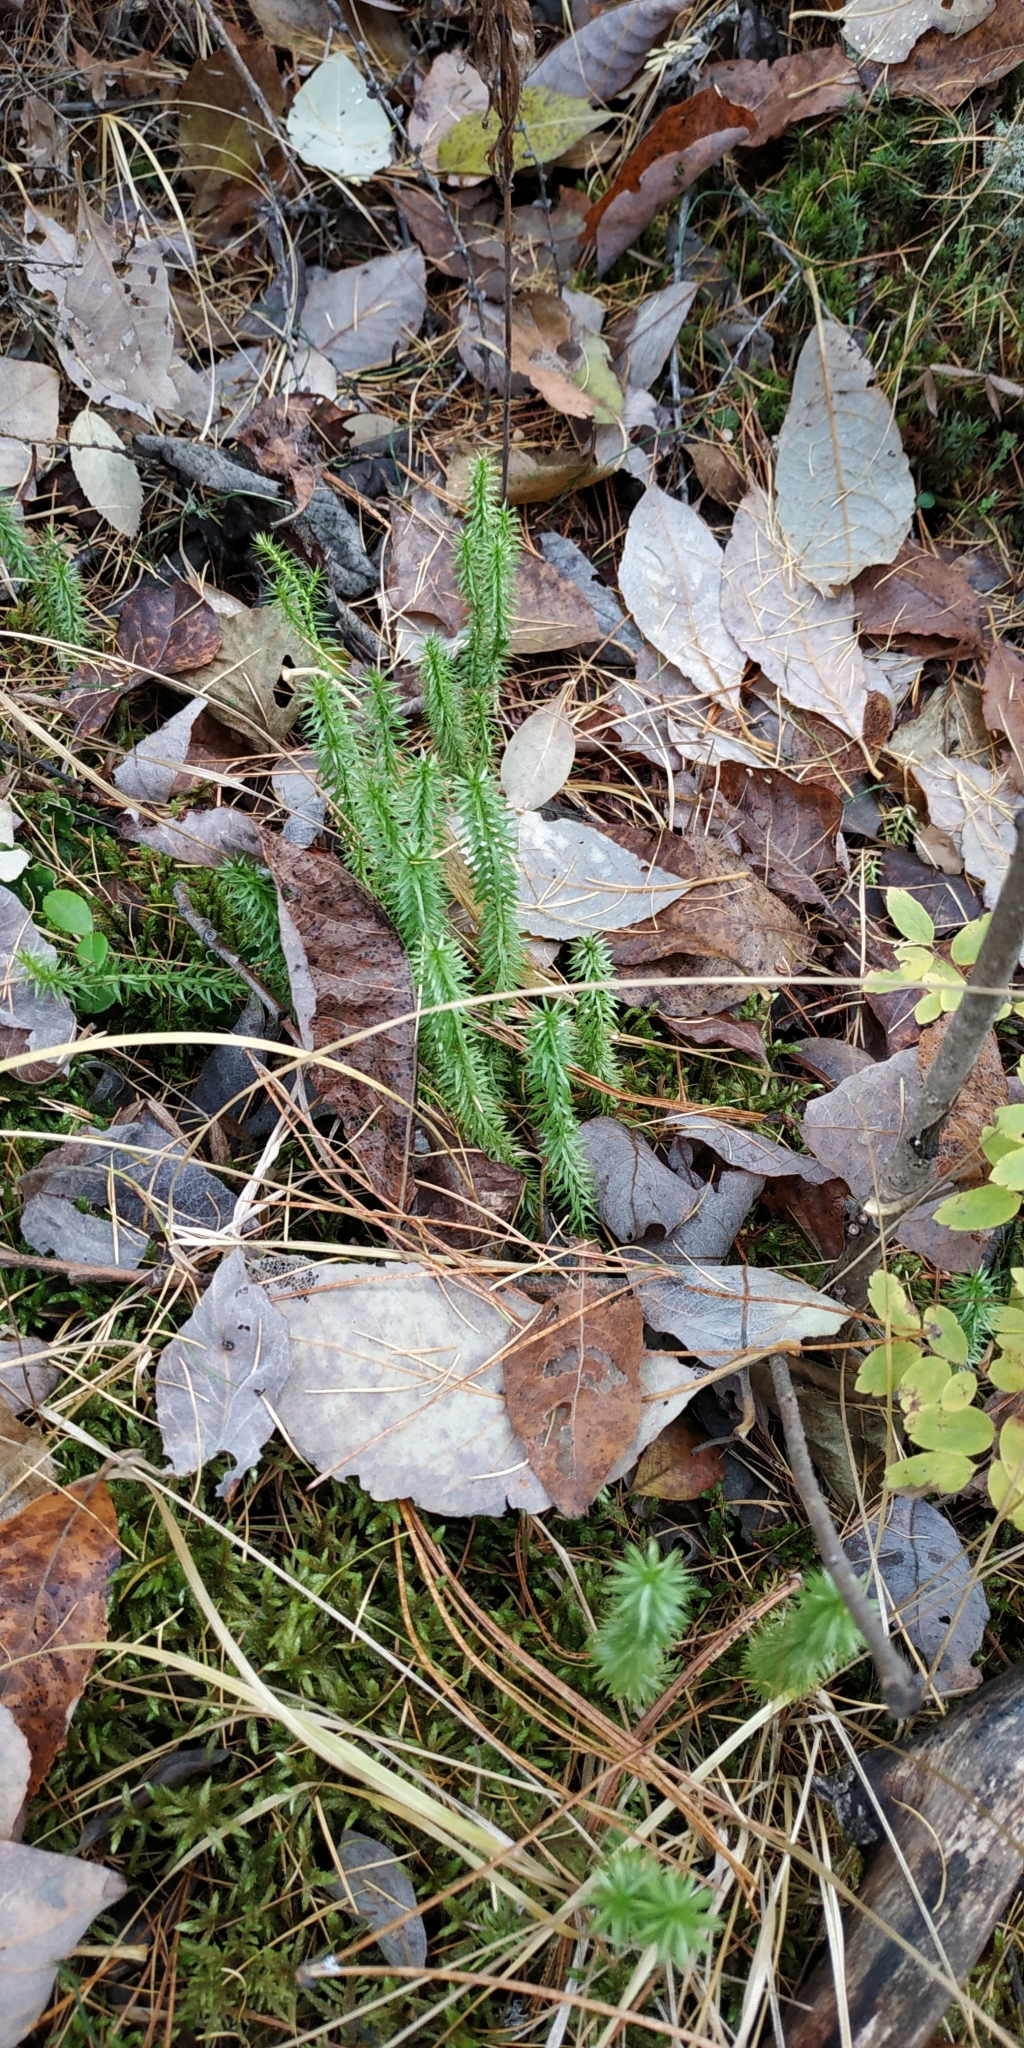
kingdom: Plantae
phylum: Tracheophyta
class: Lycopodiopsida
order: Lycopodiales
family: Lycopodiaceae
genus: Spinulum
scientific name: Spinulum annotinum
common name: Interrupted club-moss
